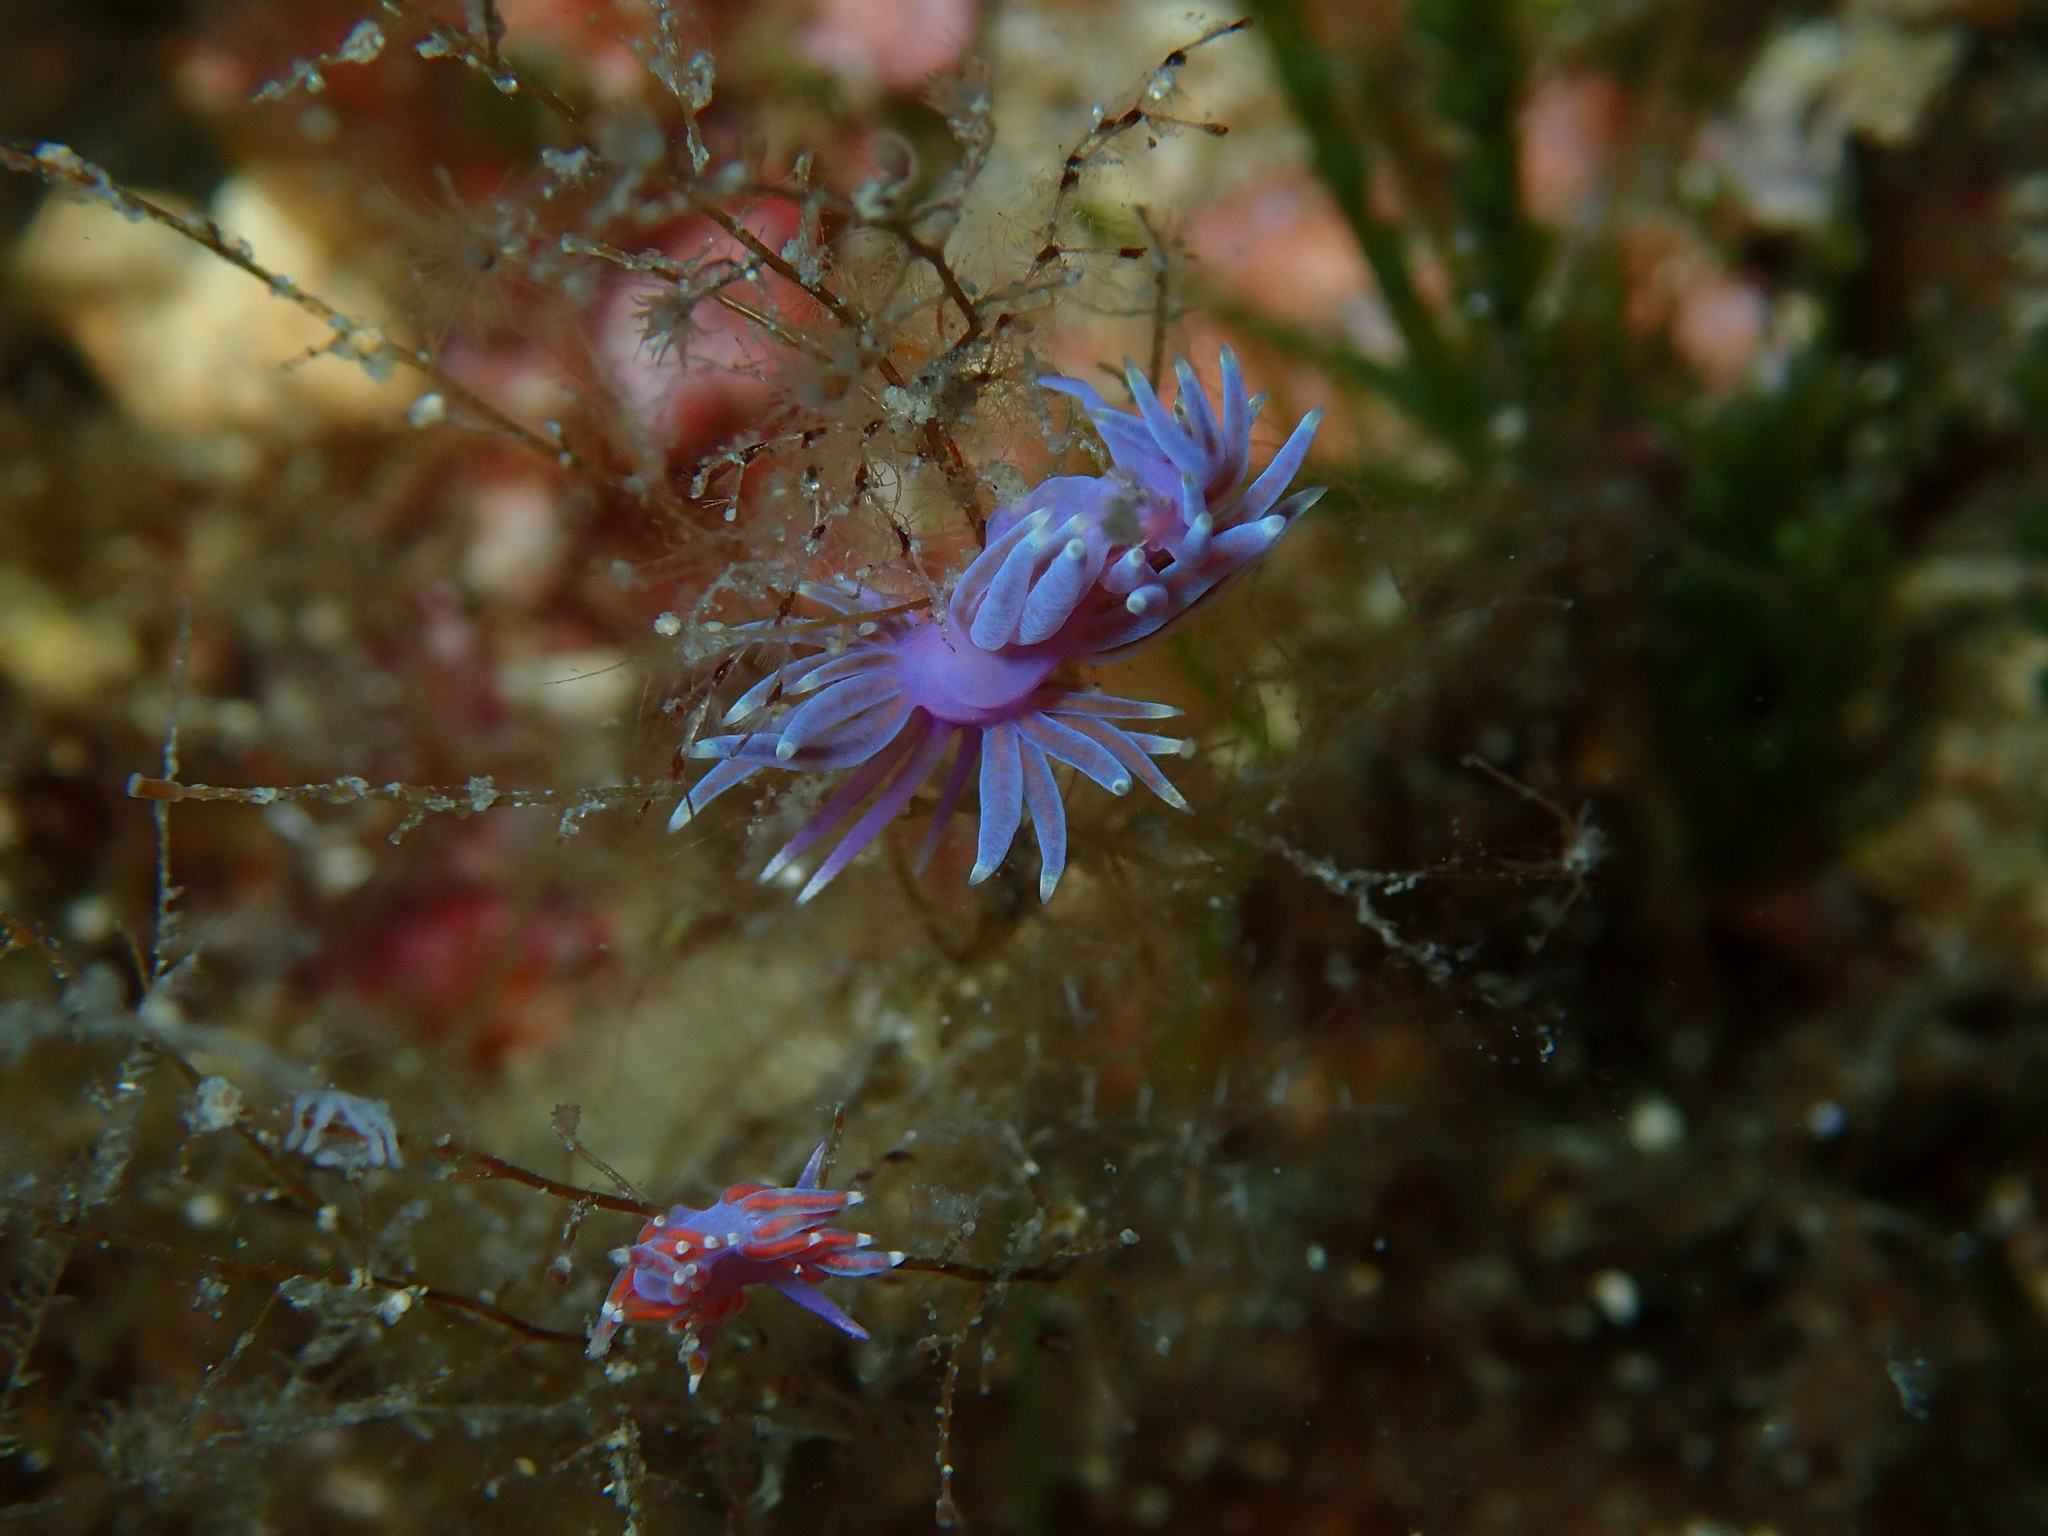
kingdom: Animalia
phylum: Mollusca
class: Gastropoda
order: Nudibranchia
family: Flabellinidae
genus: Edmundsella
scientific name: Edmundsella pedata
